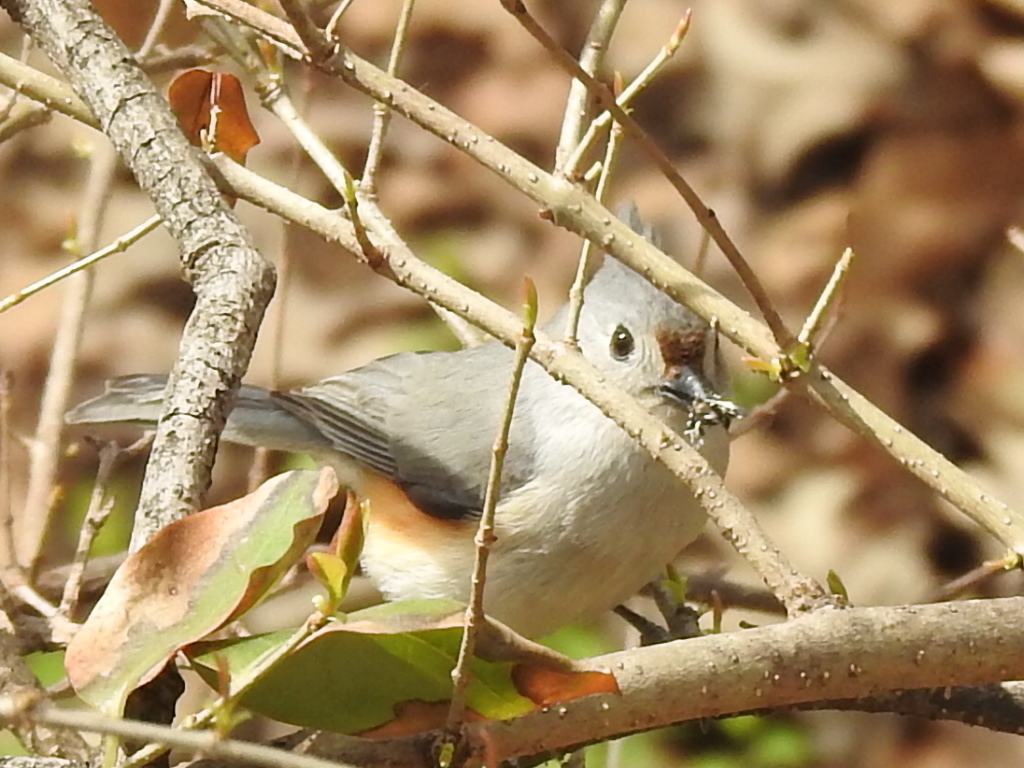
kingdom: Animalia
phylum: Chordata
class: Aves
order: Passeriformes
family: Paridae
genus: Baeolophus
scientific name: Baeolophus bicolor
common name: Tufted titmouse
